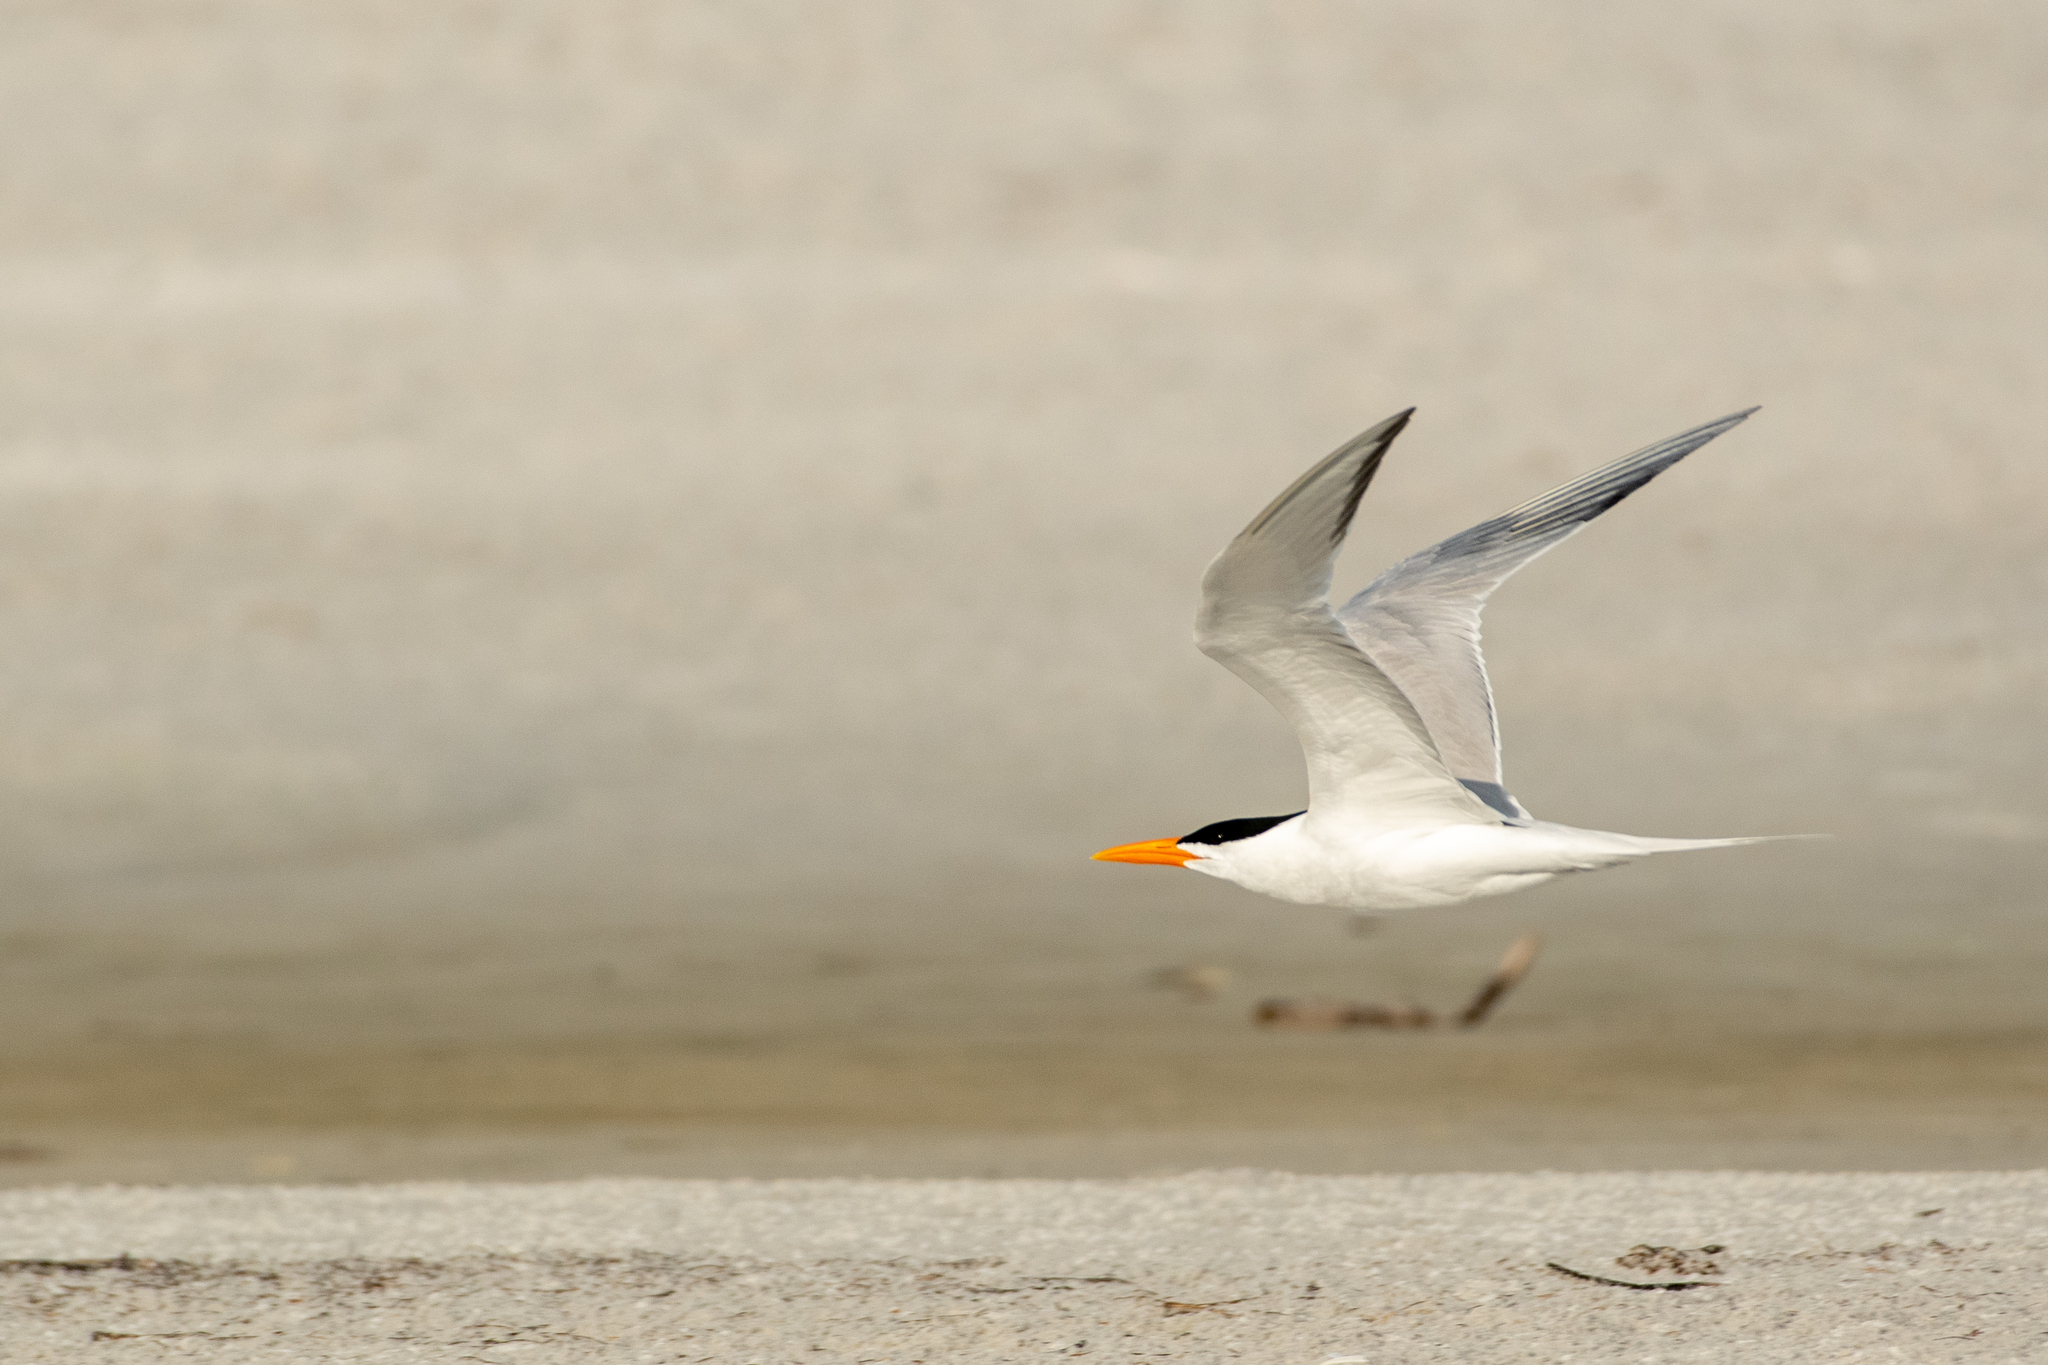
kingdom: Animalia
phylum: Chordata
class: Aves
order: Charadriiformes
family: Laridae
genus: Thalasseus
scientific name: Thalasseus maximus
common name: Royal tern
